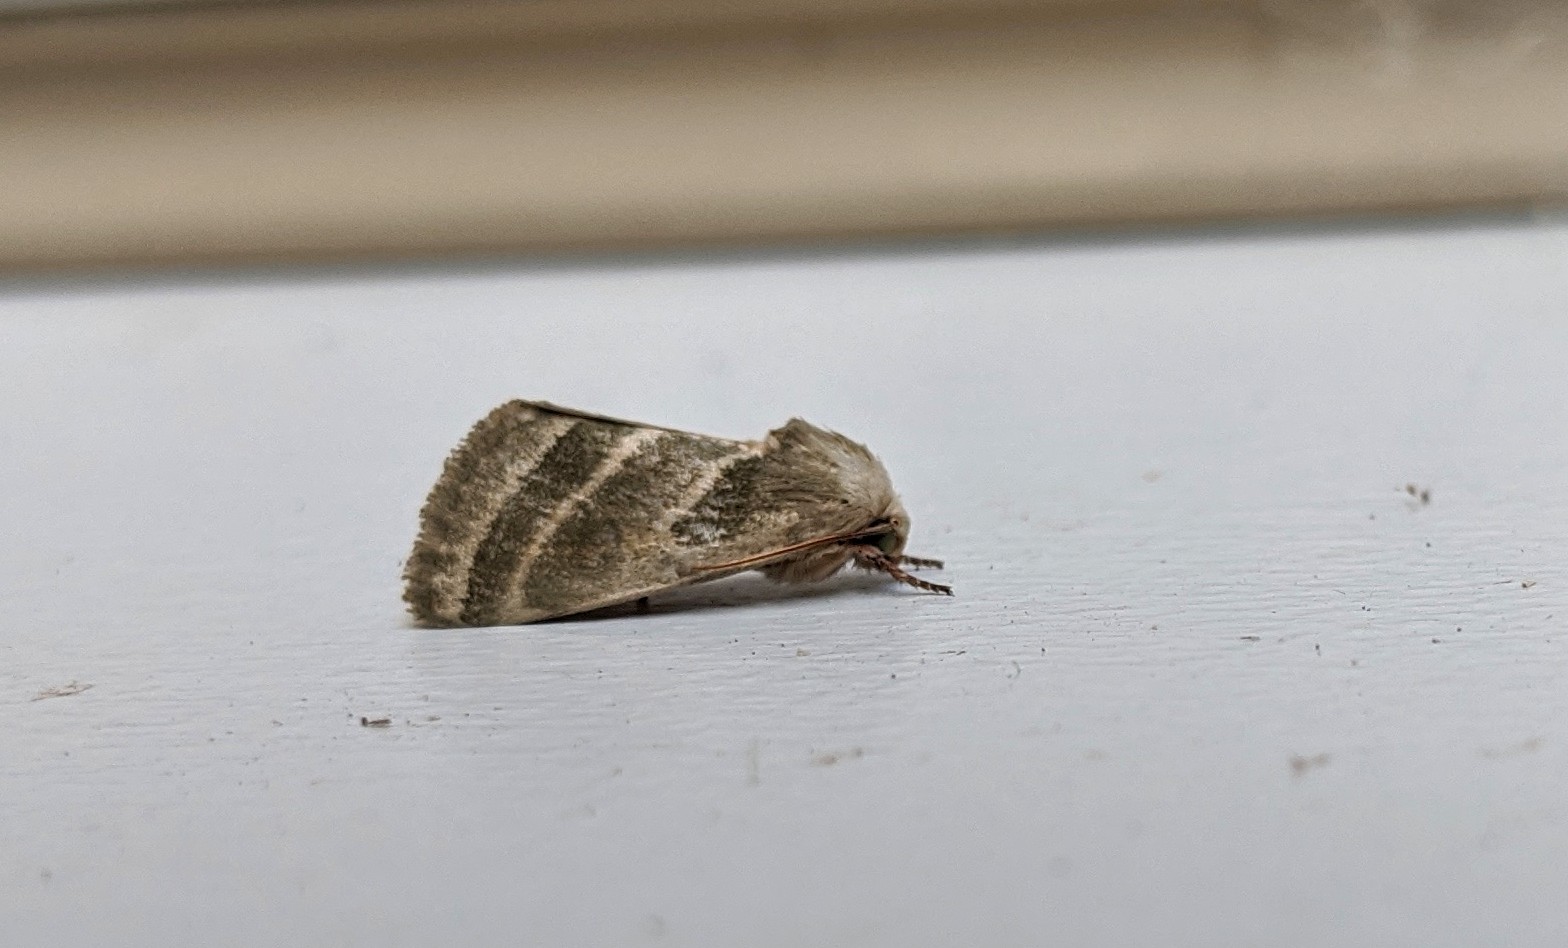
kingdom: Animalia
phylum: Arthropoda
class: Insecta
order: Lepidoptera
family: Noctuidae
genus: Schinia
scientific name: Schinia trifascia
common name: Three-lined flower moth
